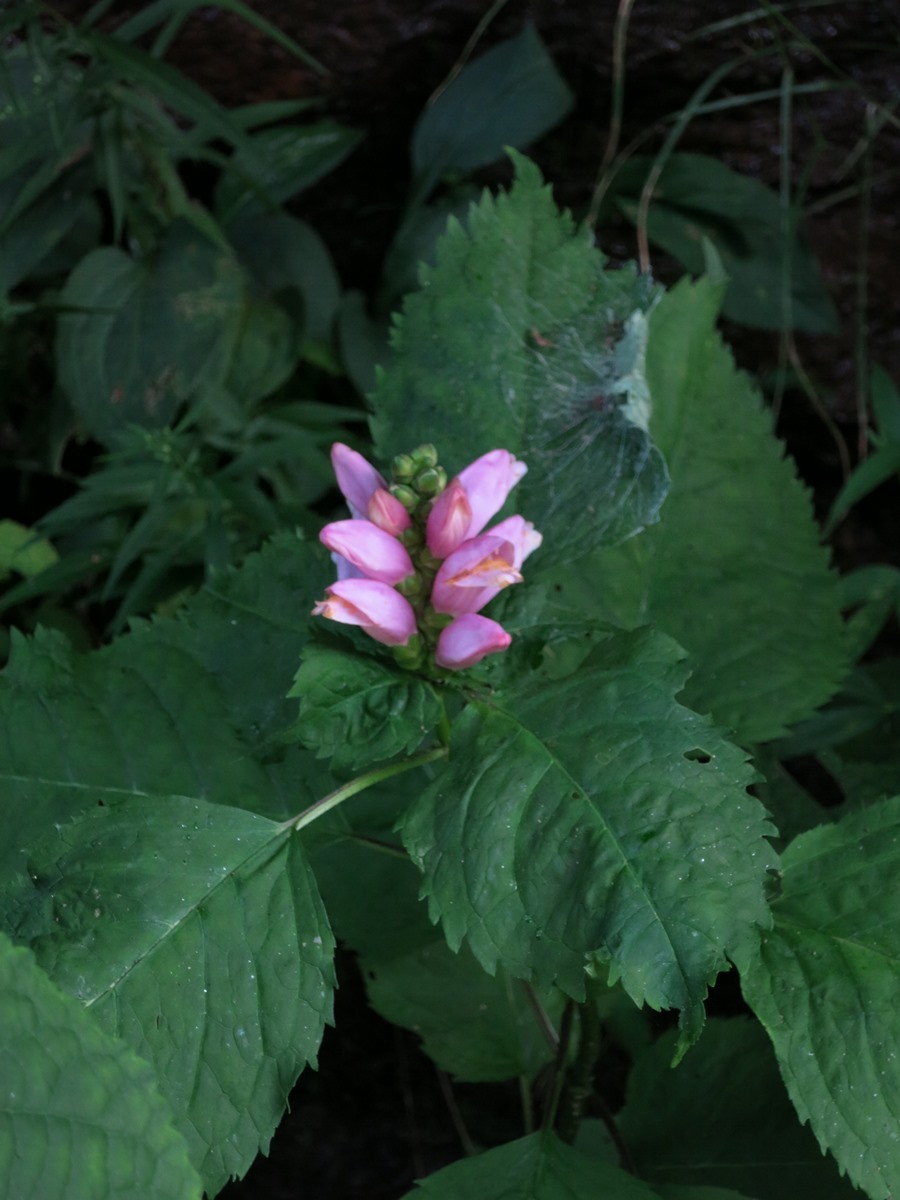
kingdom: Plantae
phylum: Tracheophyta
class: Magnoliopsida
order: Lamiales
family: Plantaginaceae
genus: Chelone
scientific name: Chelone lyonii
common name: Pink turtlehead
